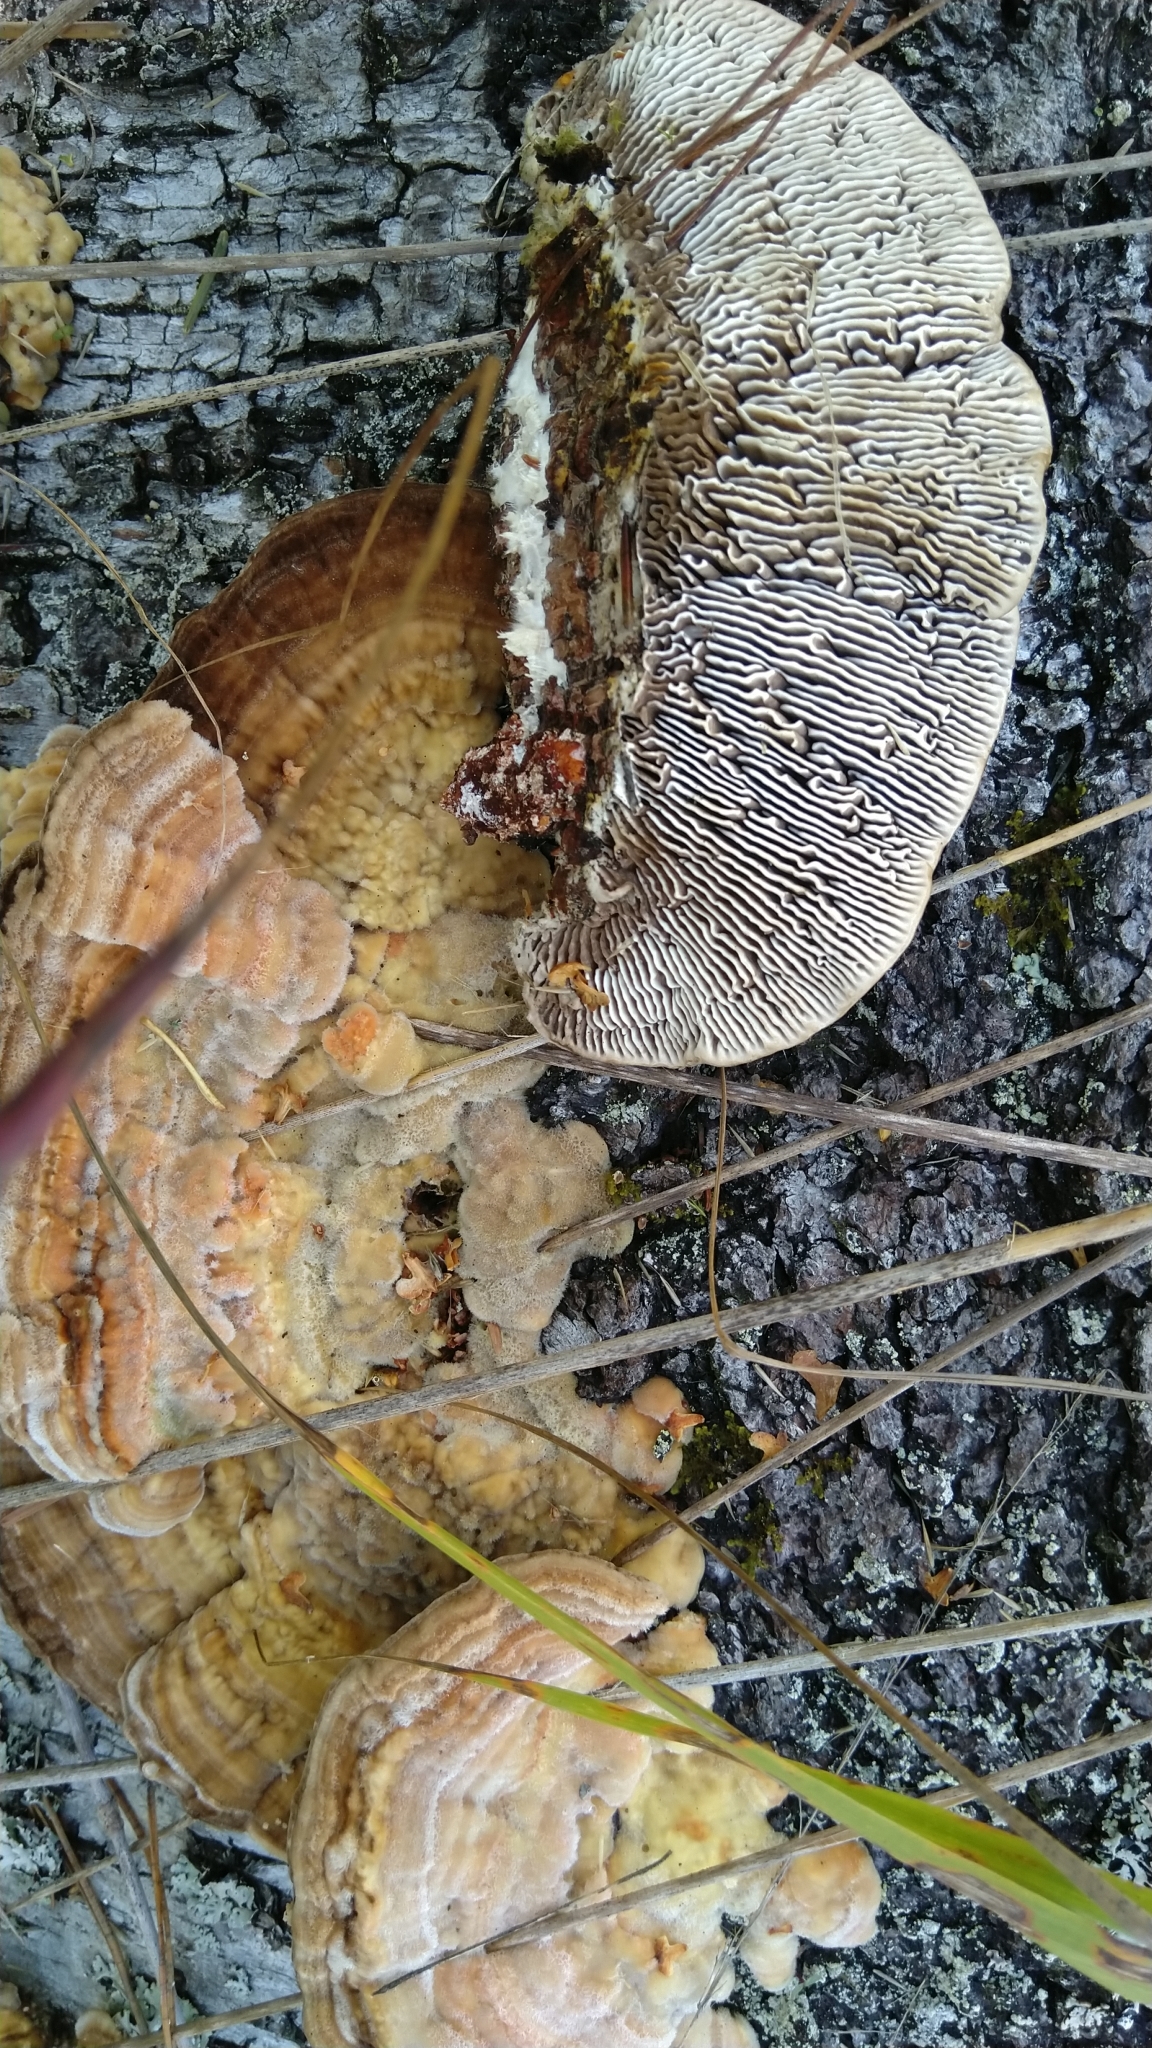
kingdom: Fungi
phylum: Basidiomycota
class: Agaricomycetes
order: Polyporales
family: Polyporaceae
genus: Lenzites
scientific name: Lenzites betulinus
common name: Birch mazegill
